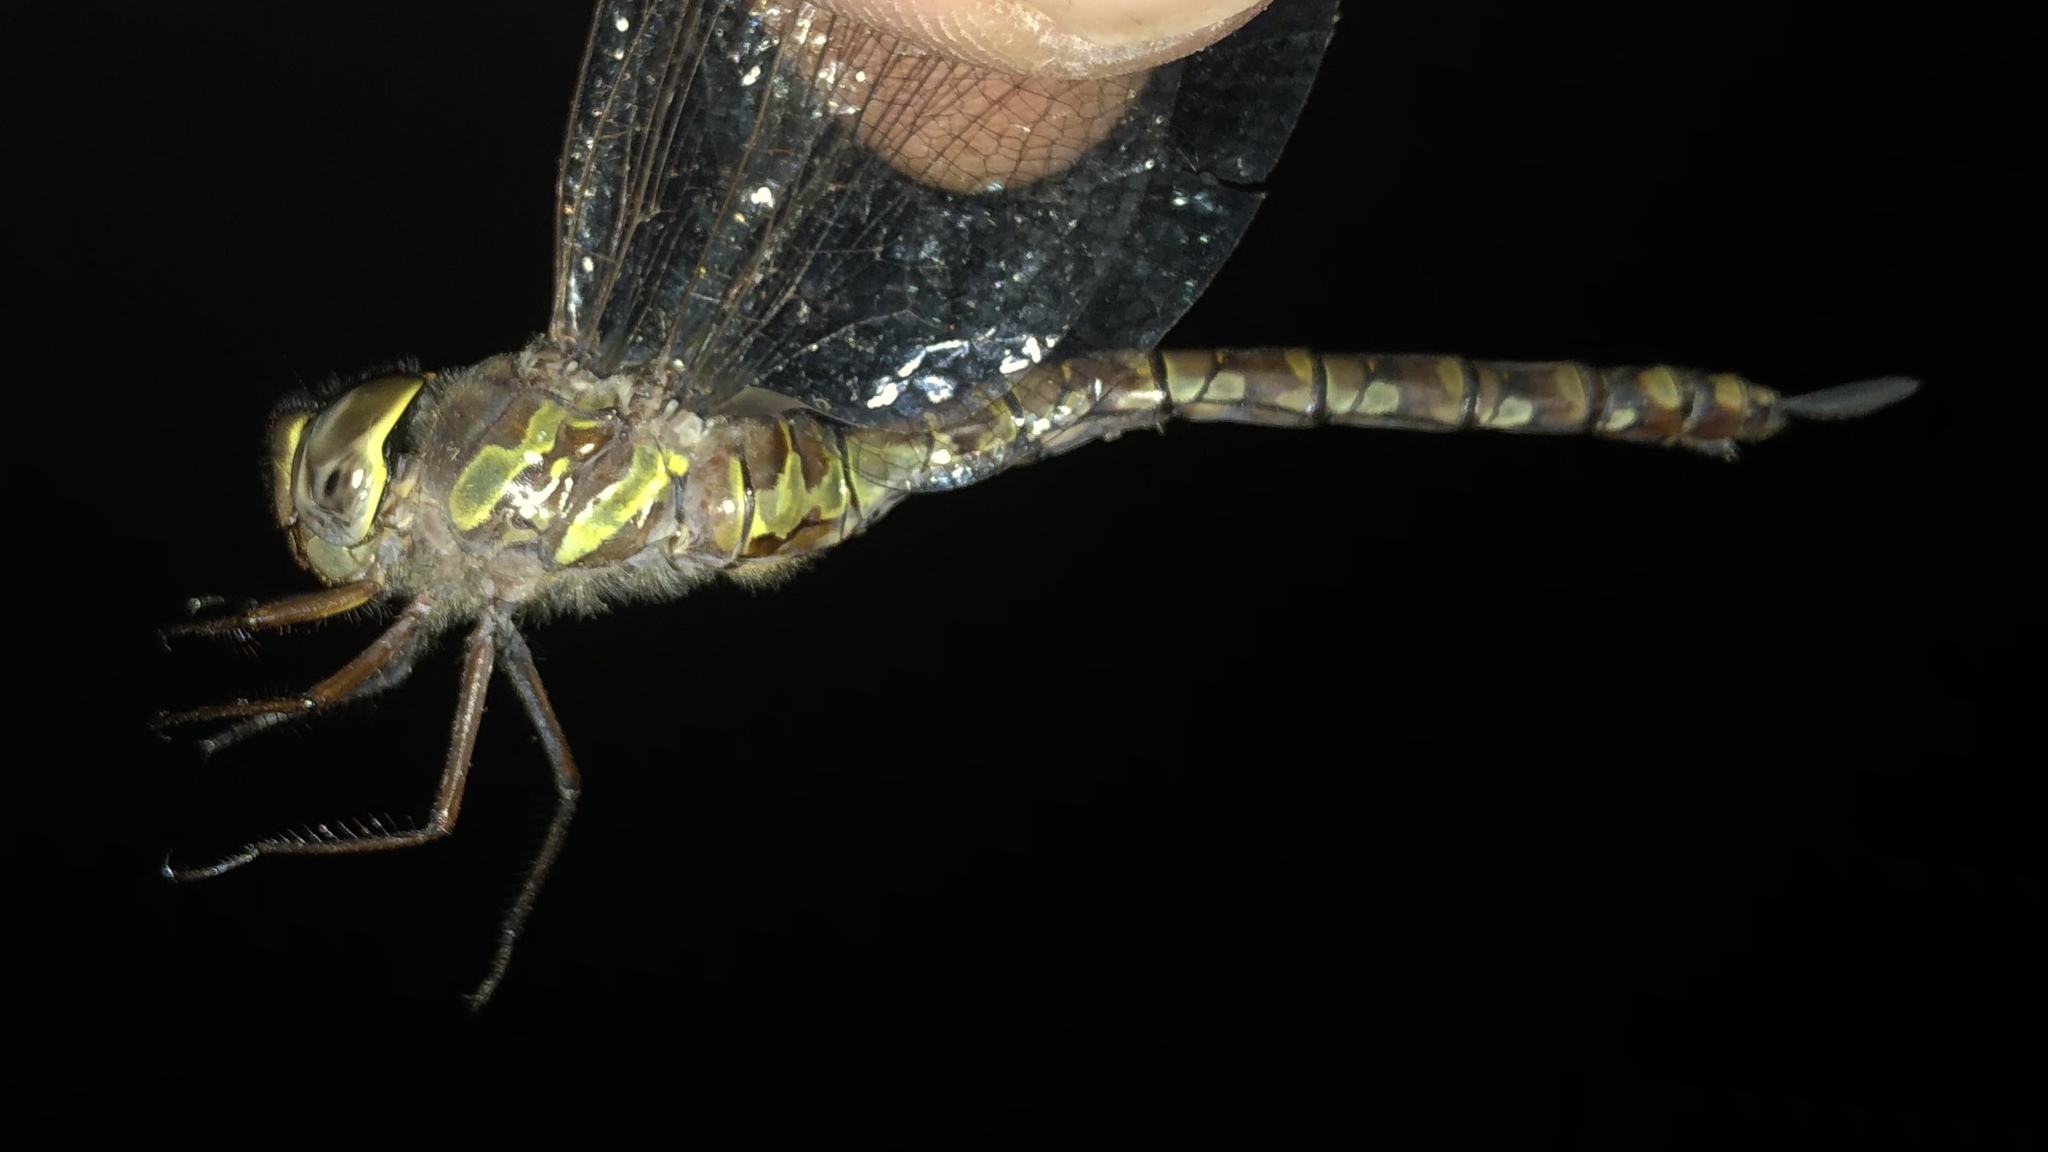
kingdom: Animalia
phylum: Arthropoda
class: Insecta
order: Odonata
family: Aeshnidae
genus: Aeshna
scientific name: Aeshna canadensis
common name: Canada darner
